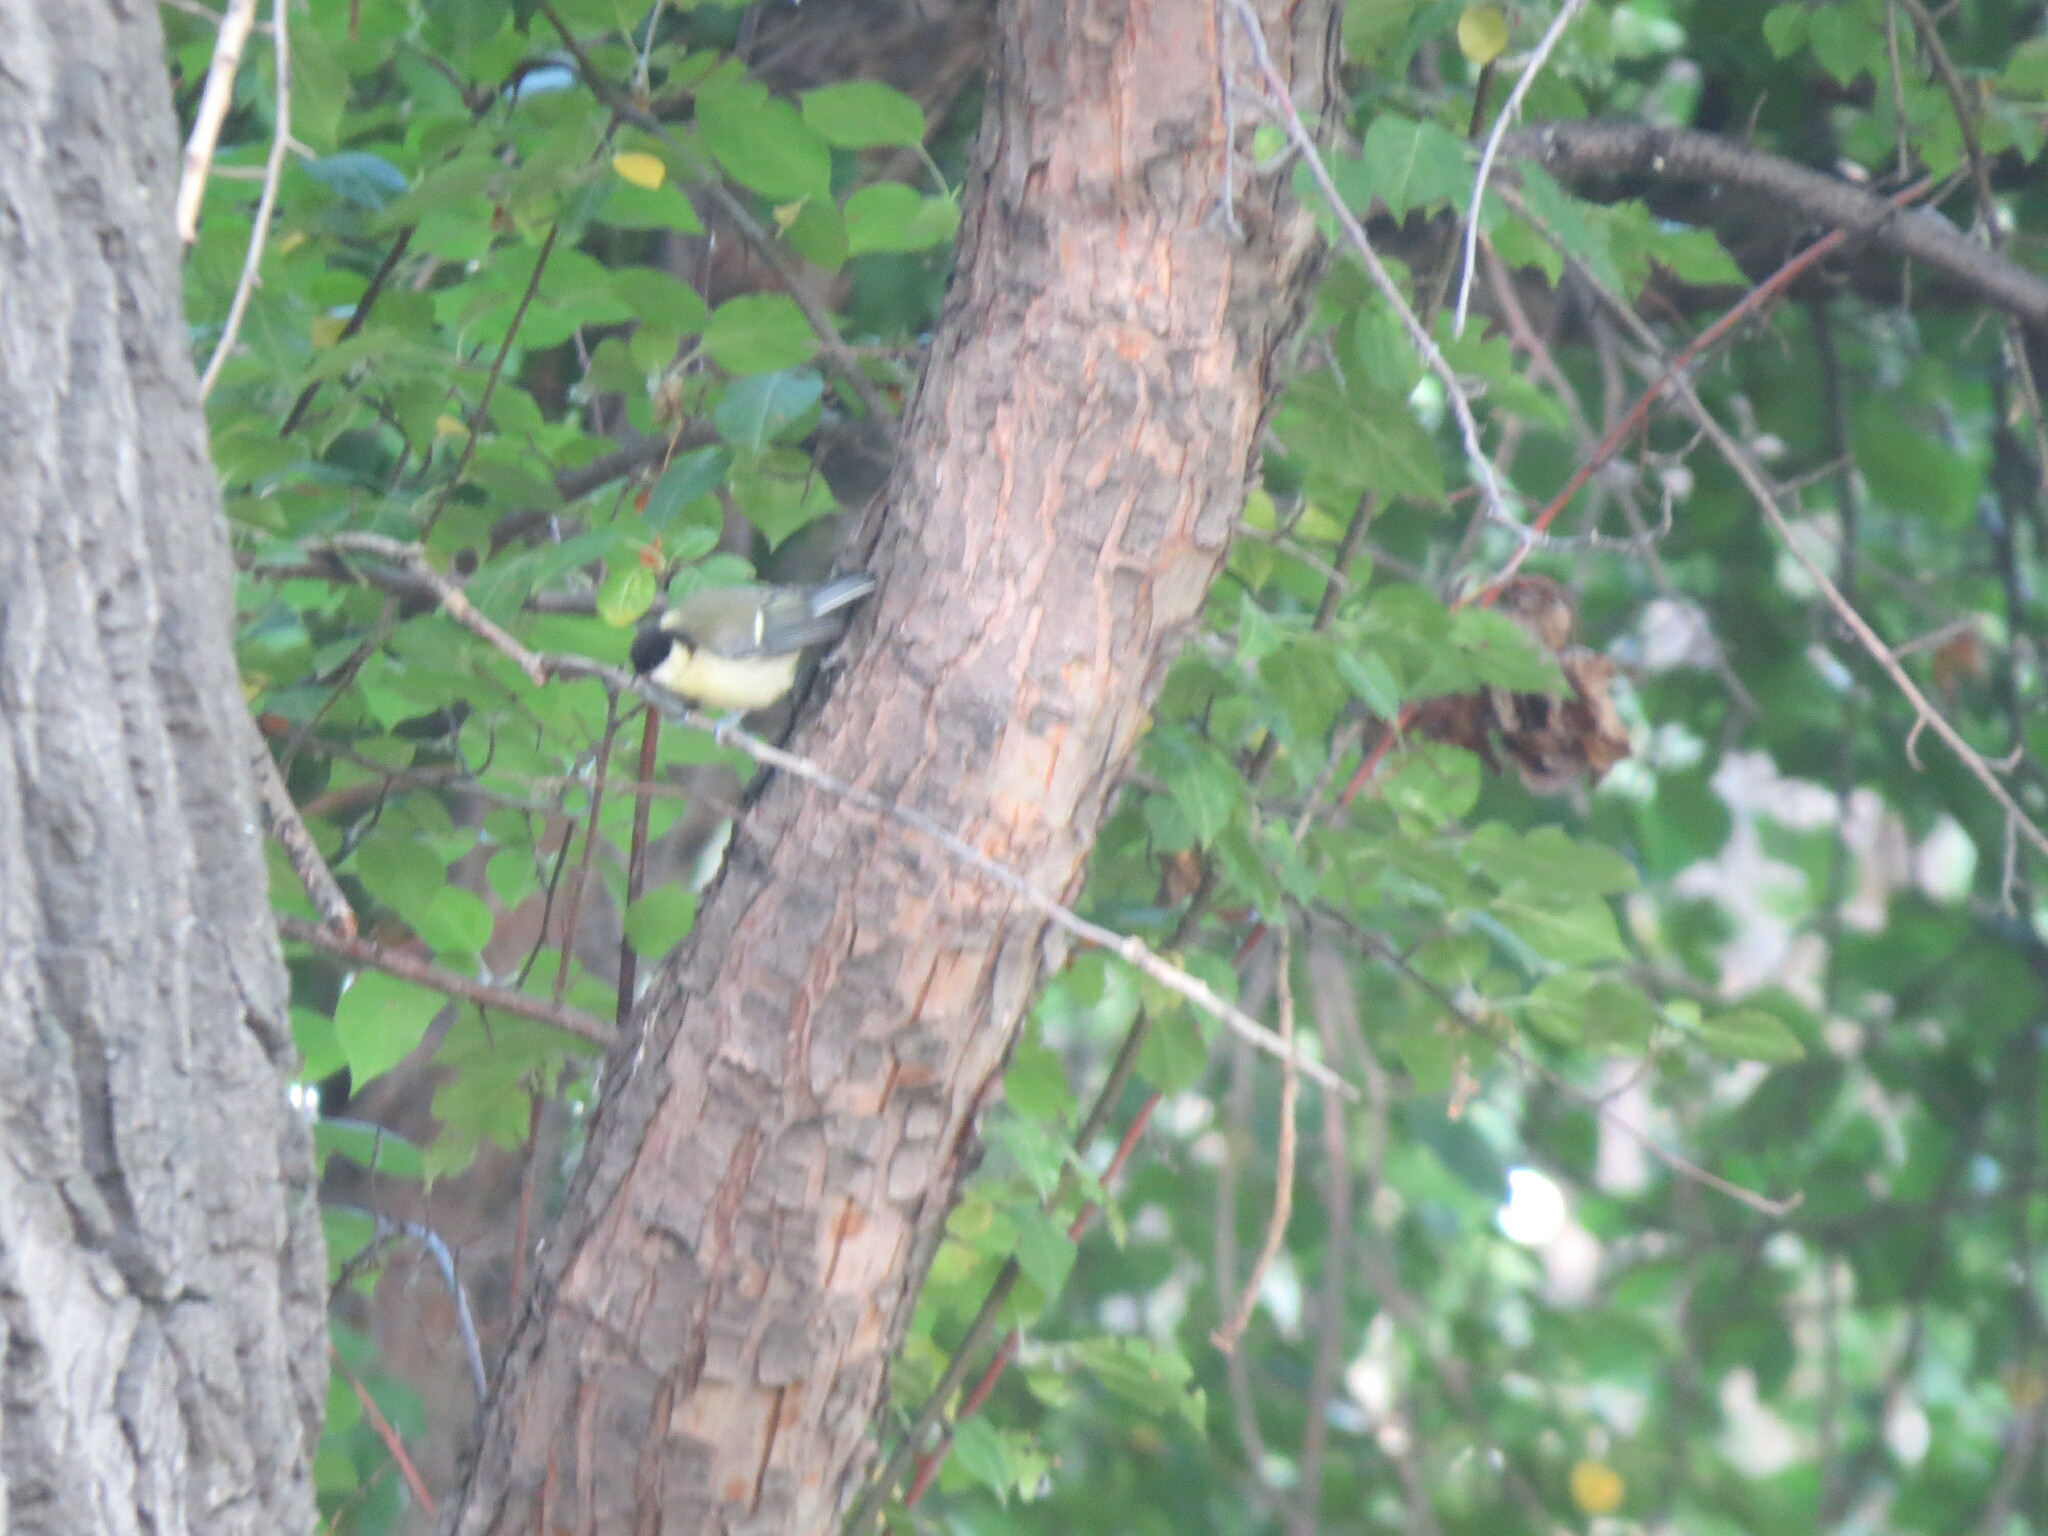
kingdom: Animalia
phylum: Chordata
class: Aves
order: Passeriformes
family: Paridae
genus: Parus
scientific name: Parus major
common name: Great tit
